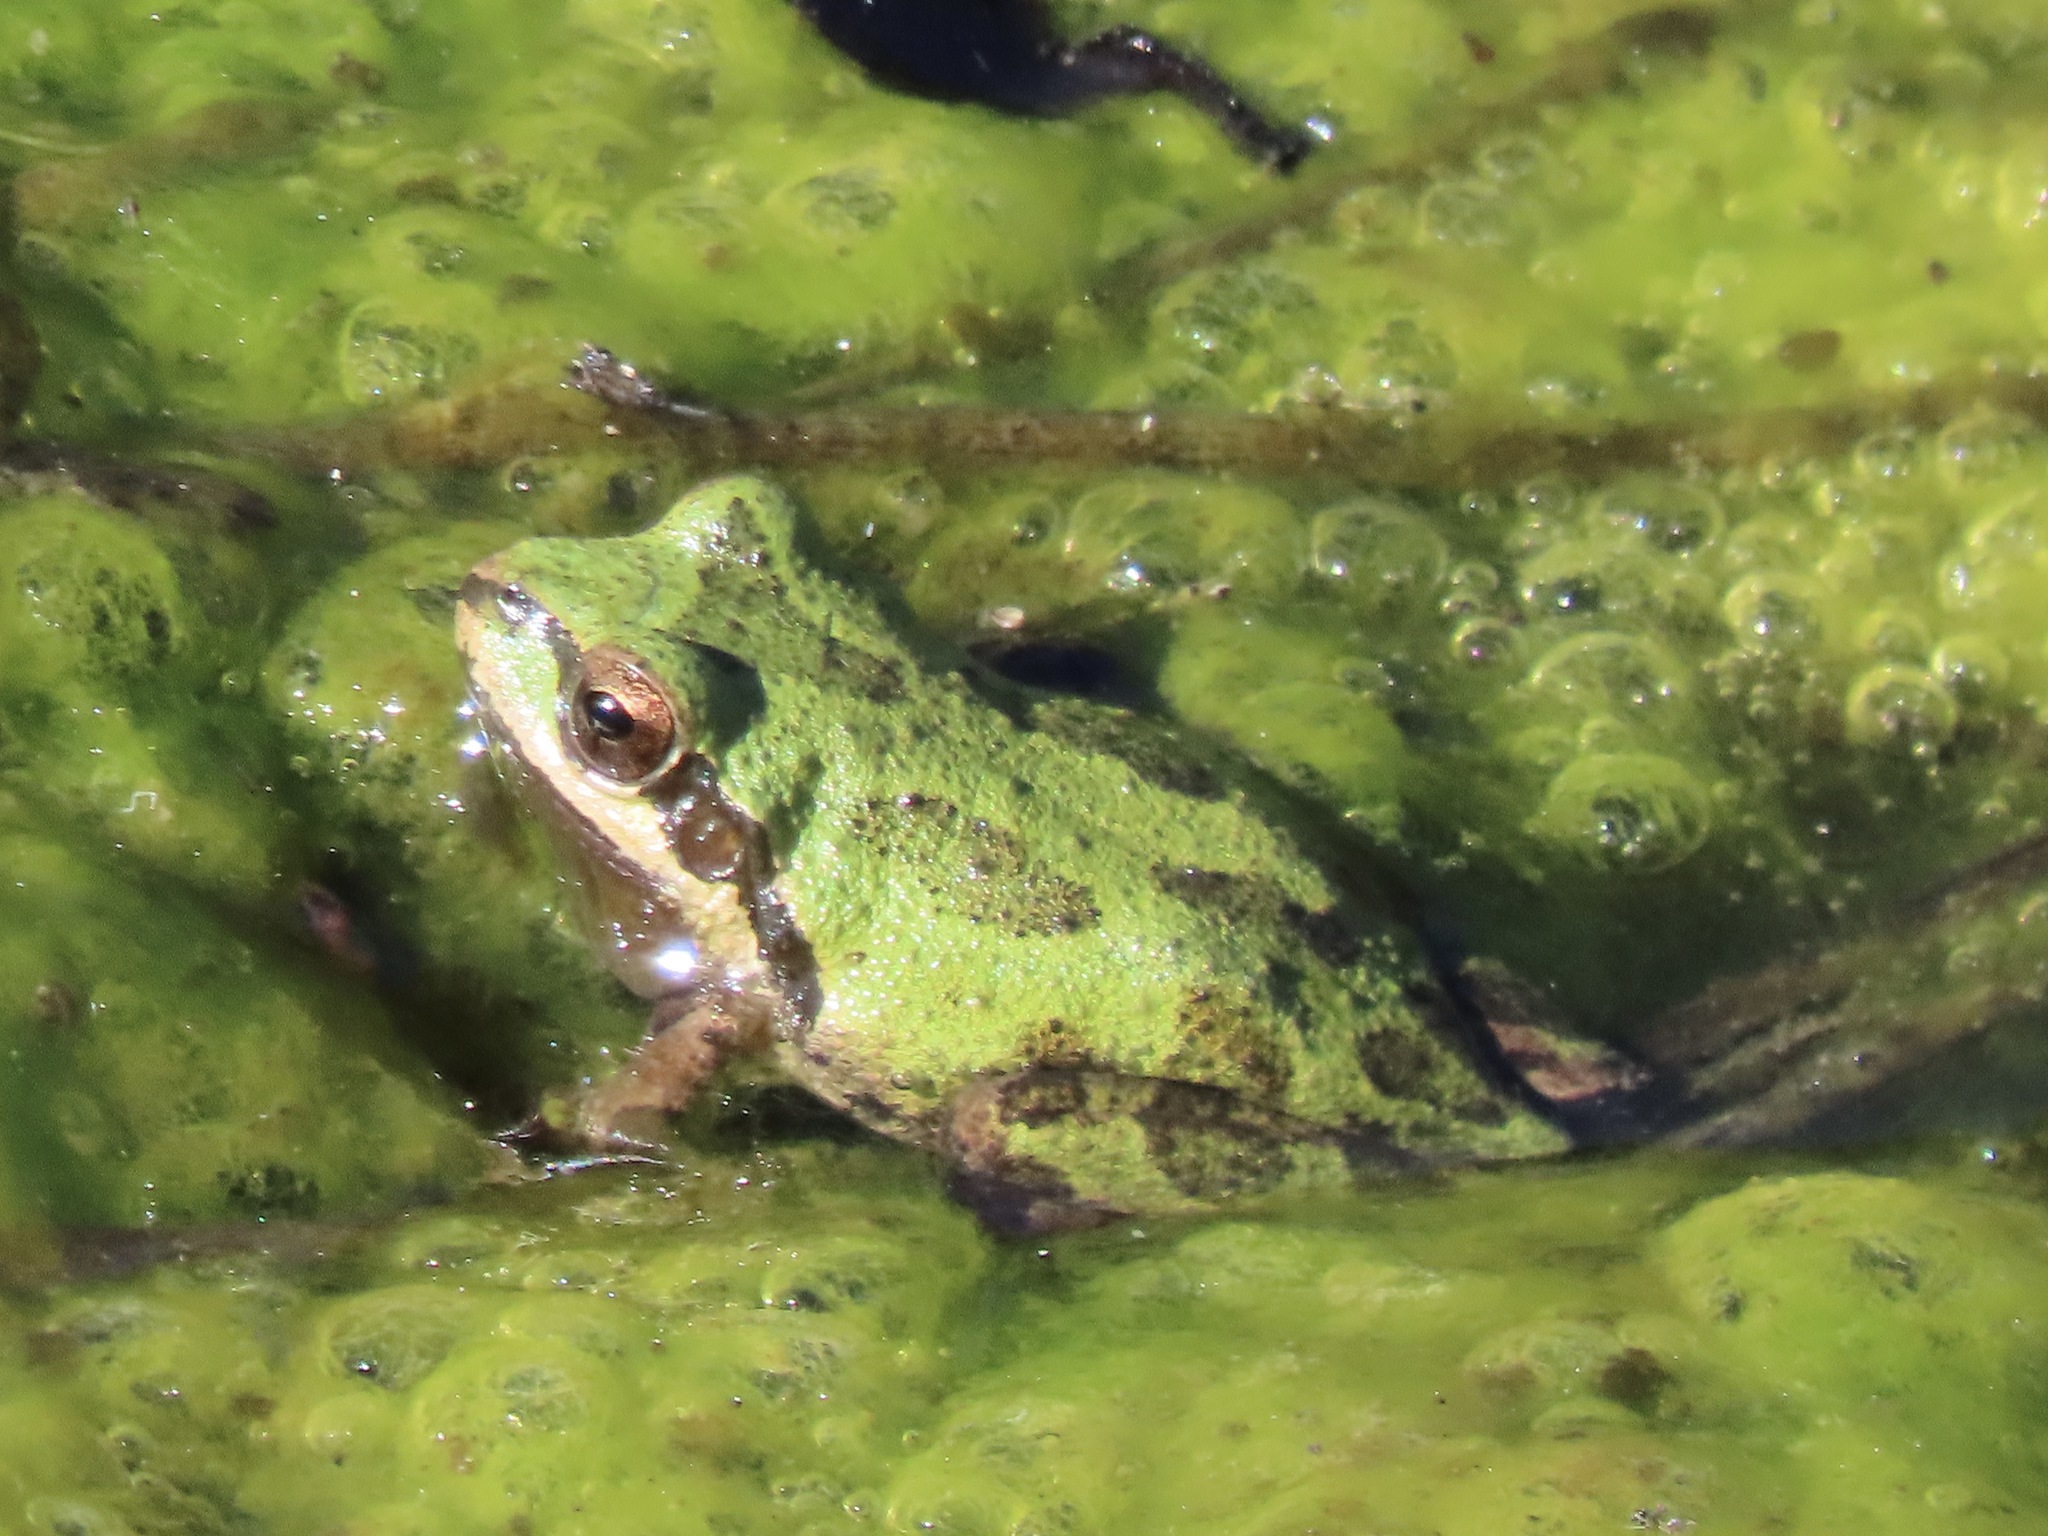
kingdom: Animalia
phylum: Chordata
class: Amphibia
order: Anura
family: Hylidae
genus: Pseudacris
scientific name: Pseudacris regilla
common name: Pacific chorus frog
